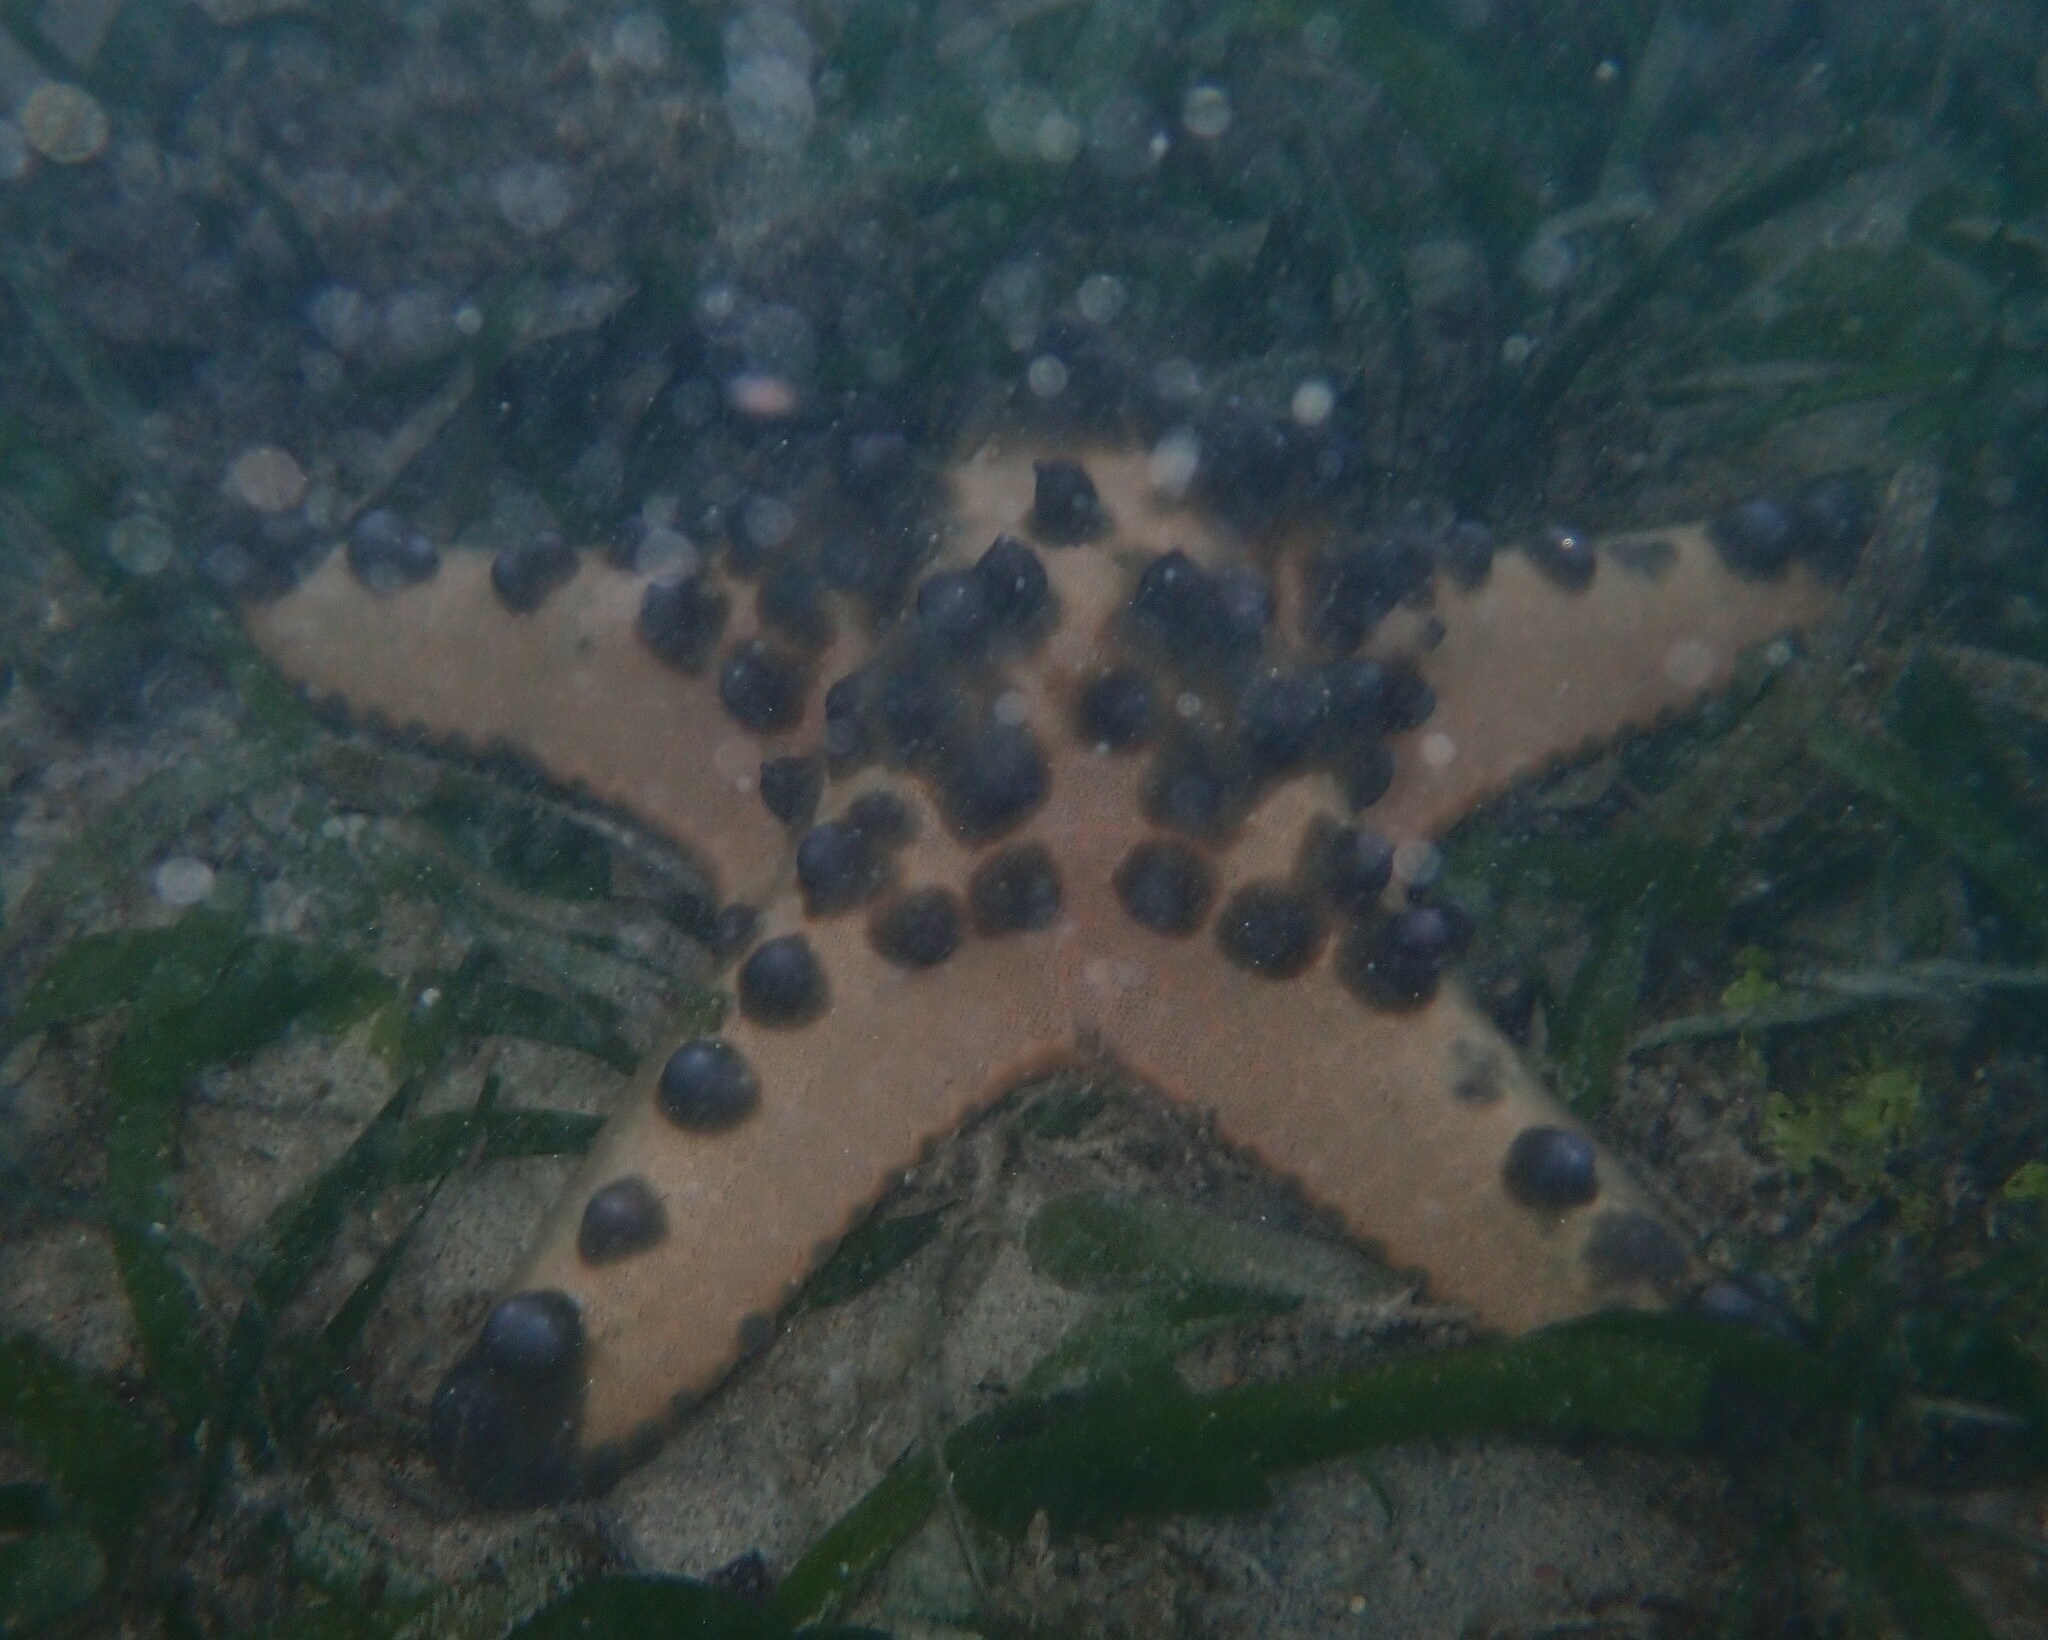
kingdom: Animalia
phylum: Echinodermata
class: Asteroidea
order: Valvatida
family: Oreasteridae
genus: Protoreaster
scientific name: Protoreaster nodosus
